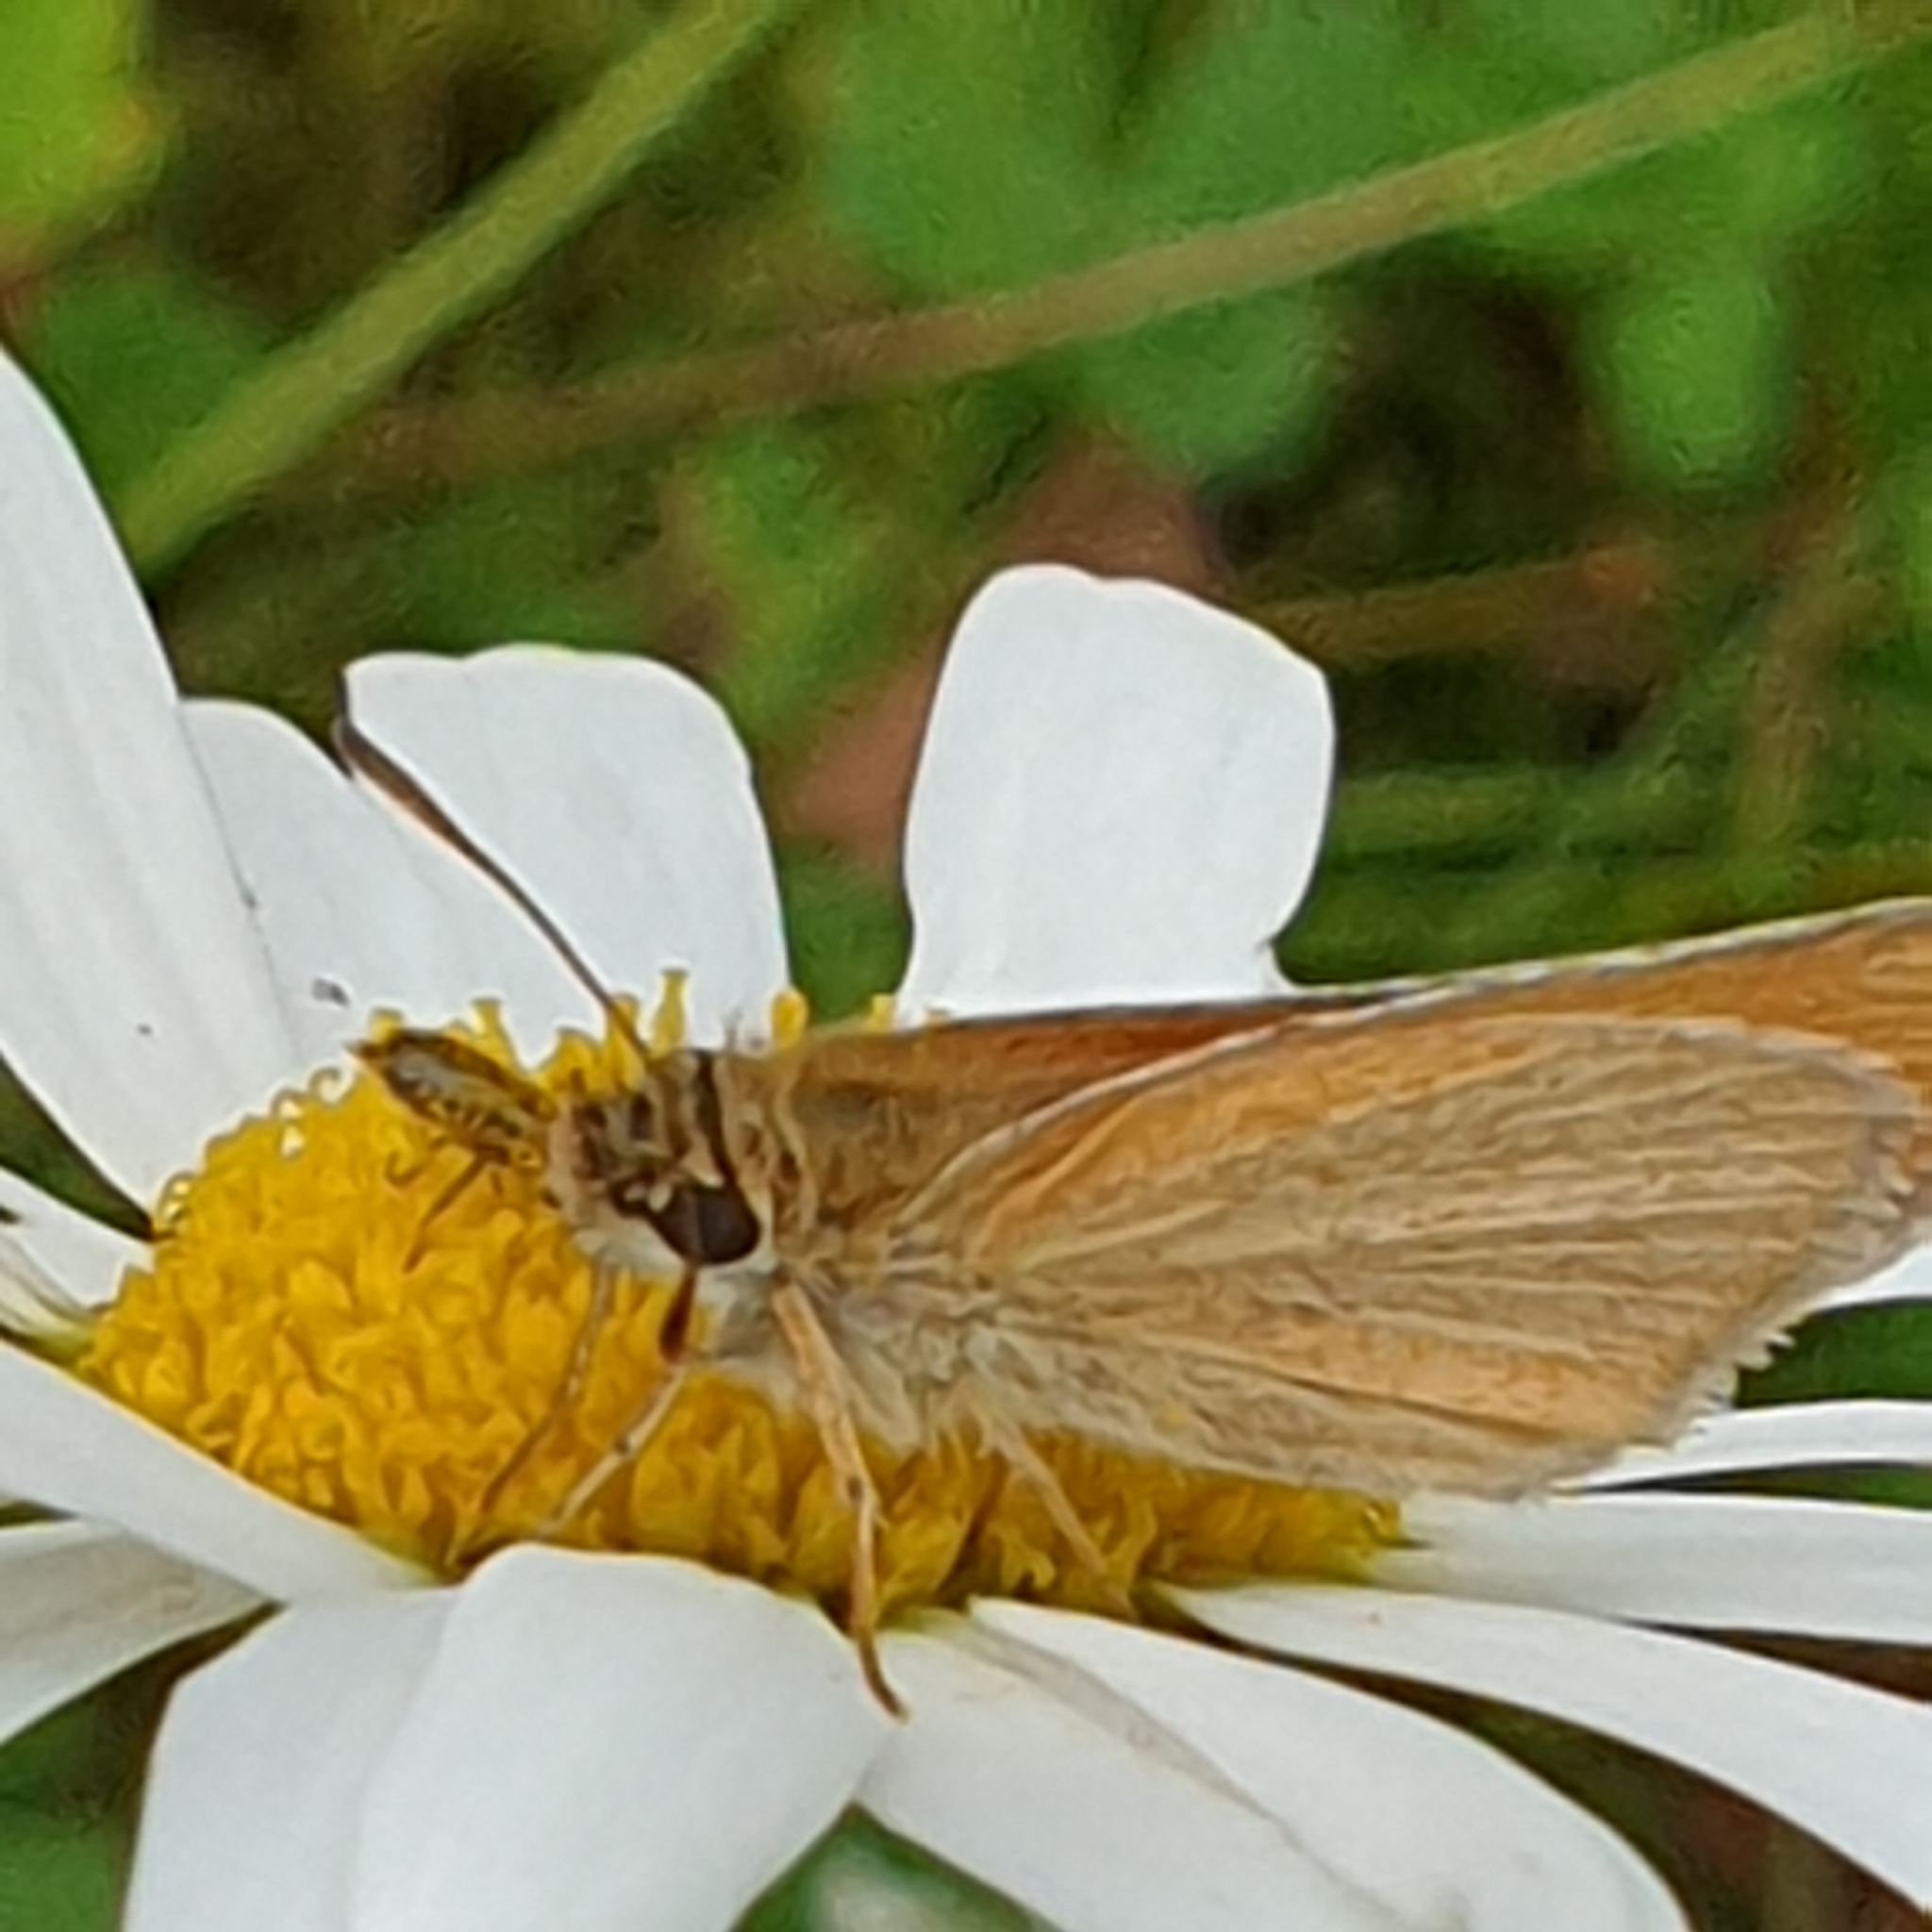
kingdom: Animalia
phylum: Arthropoda
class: Insecta
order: Lepidoptera
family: Hesperiidae
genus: Thymelicus
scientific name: Thymelicus lineola
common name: Essex skipper
